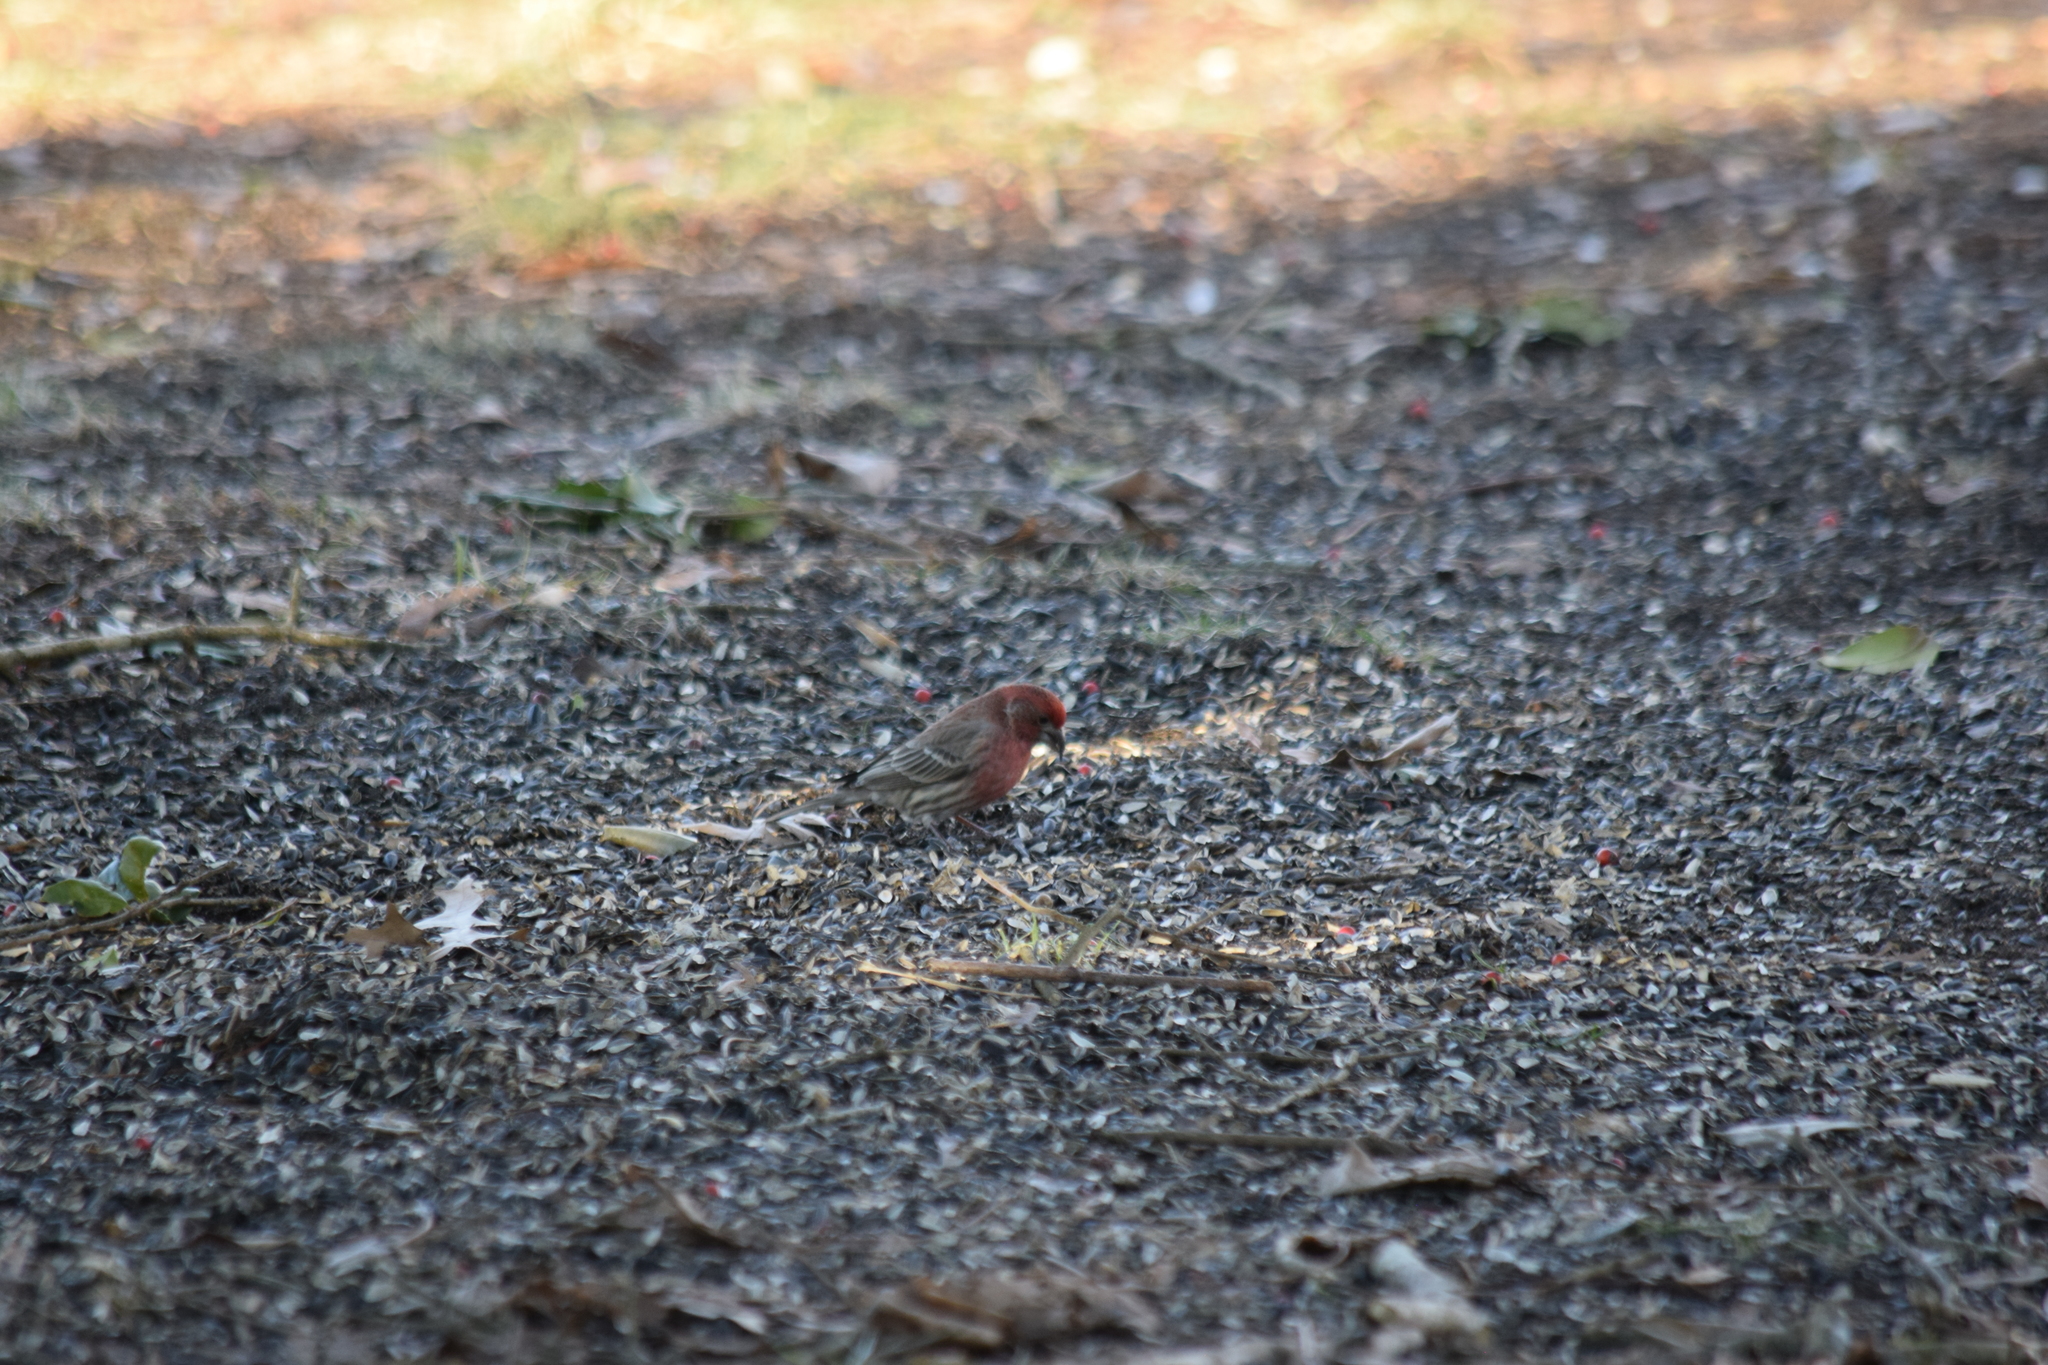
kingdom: Animalia
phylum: Chordata
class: Aves
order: Passeriformes
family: Fringillidae
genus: Haemorhous
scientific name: Haemorhous mexicanus
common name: House finch
